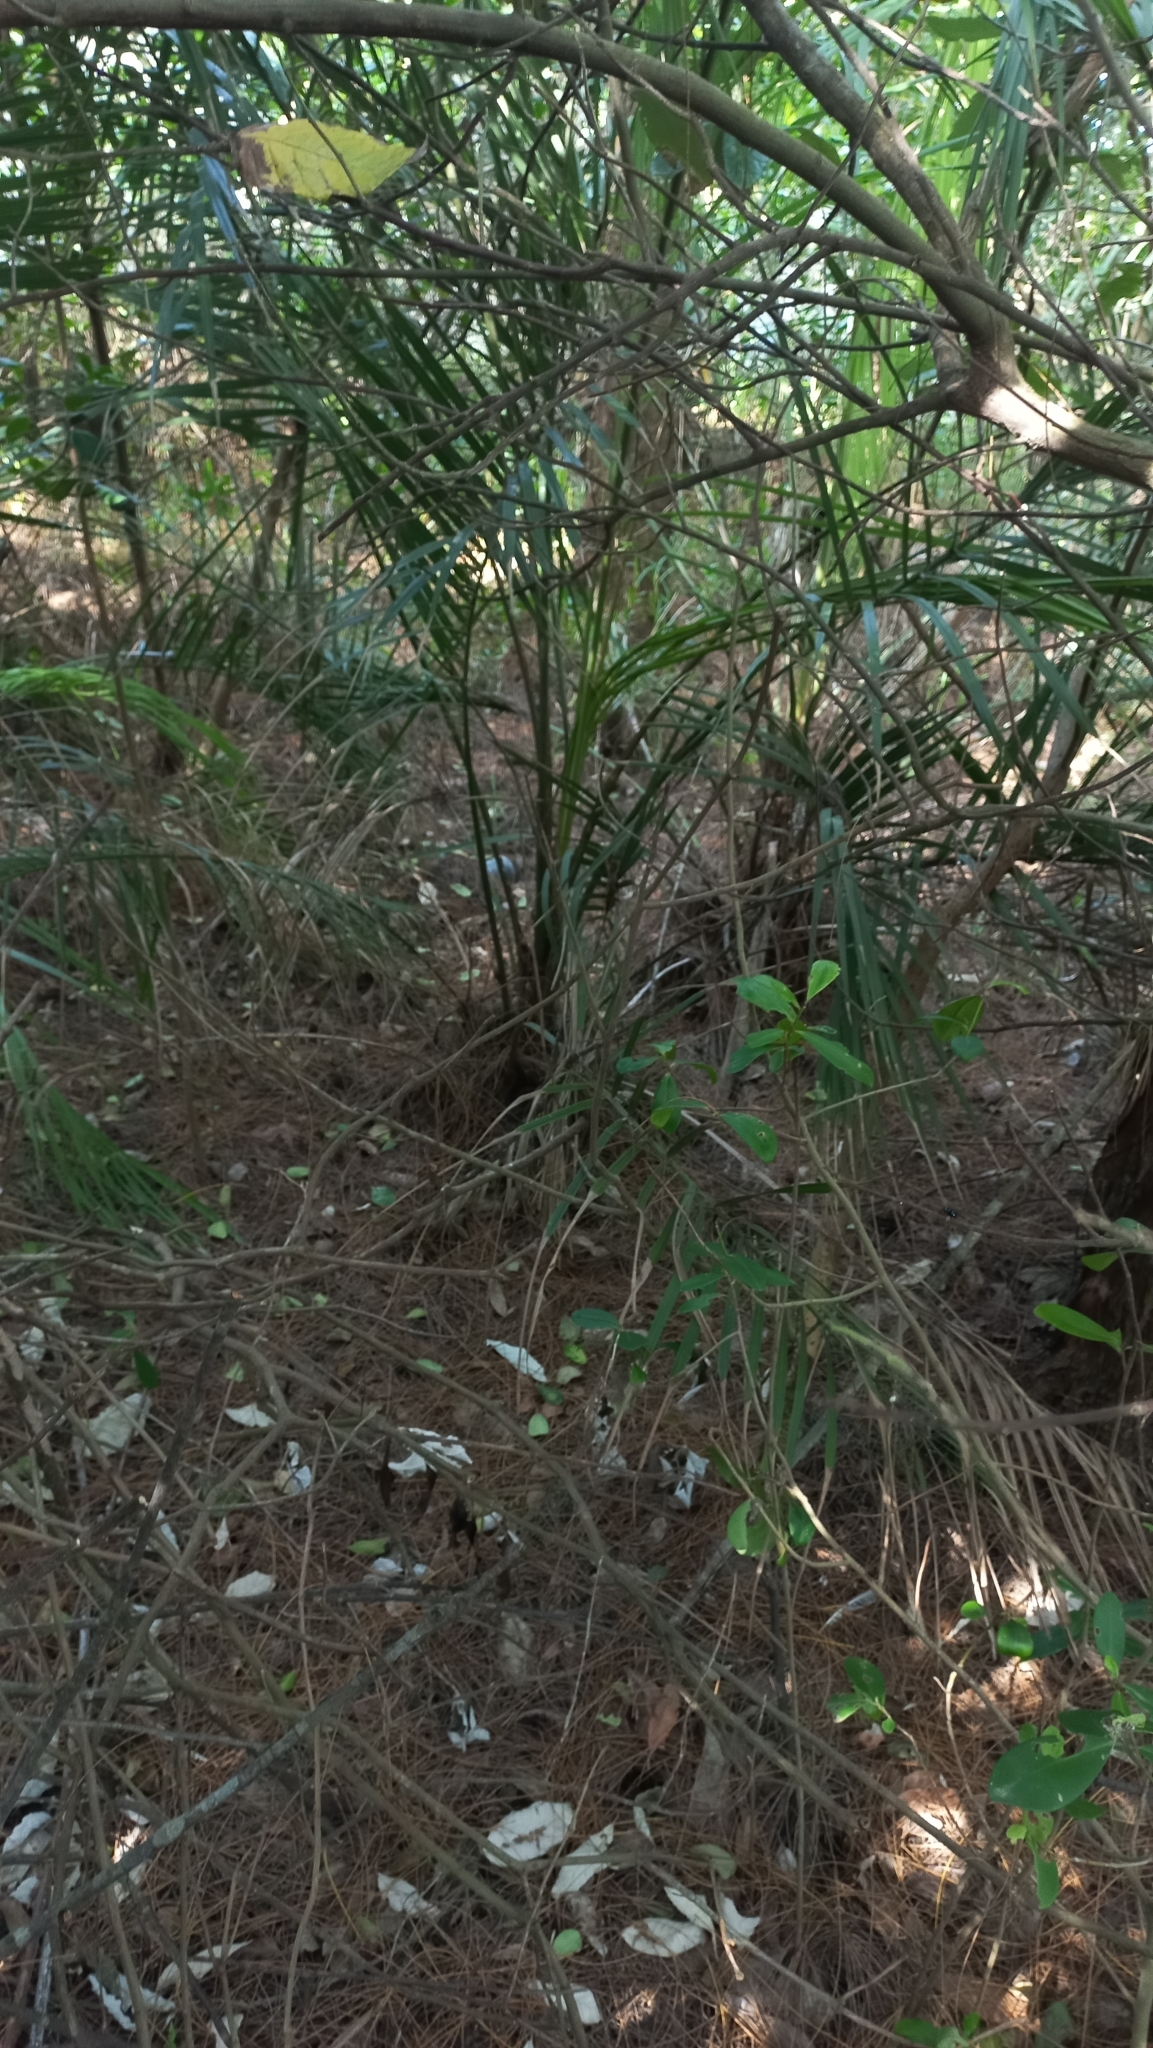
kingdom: Plantae
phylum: Tracheophyta
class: Liliopsida
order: Arecales
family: Arecaceae
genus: Butia
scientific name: Butia catarinensis
